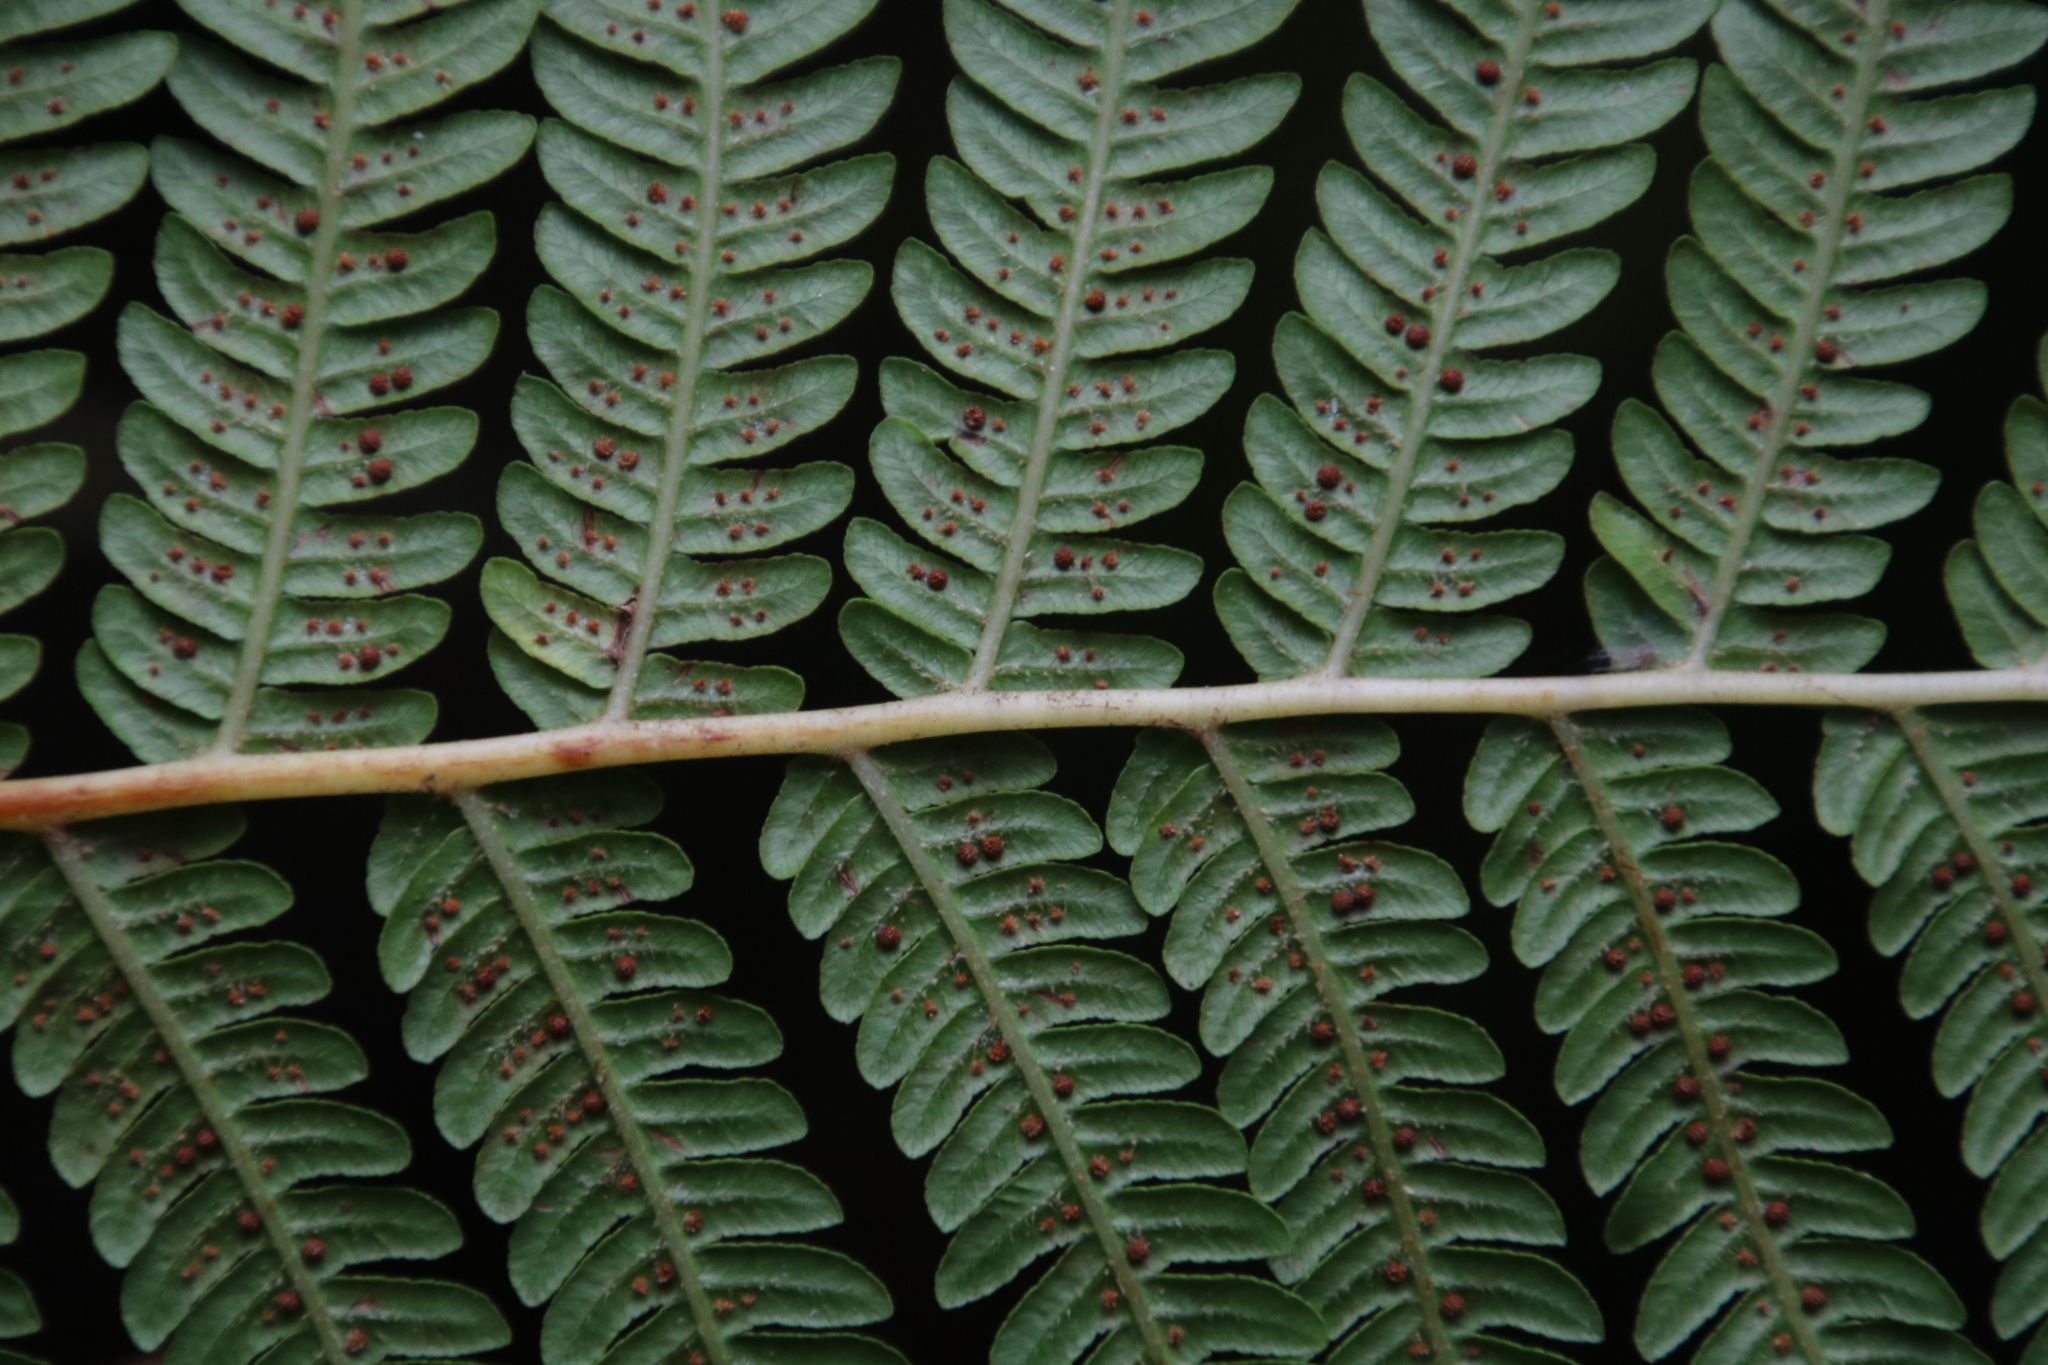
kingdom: Plantae
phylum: Tracheophyta
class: Polypodiopsida
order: Cyatheales
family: Cyatheaceae
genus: Sphaeropteris
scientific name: Sphaeropteris cooperi
